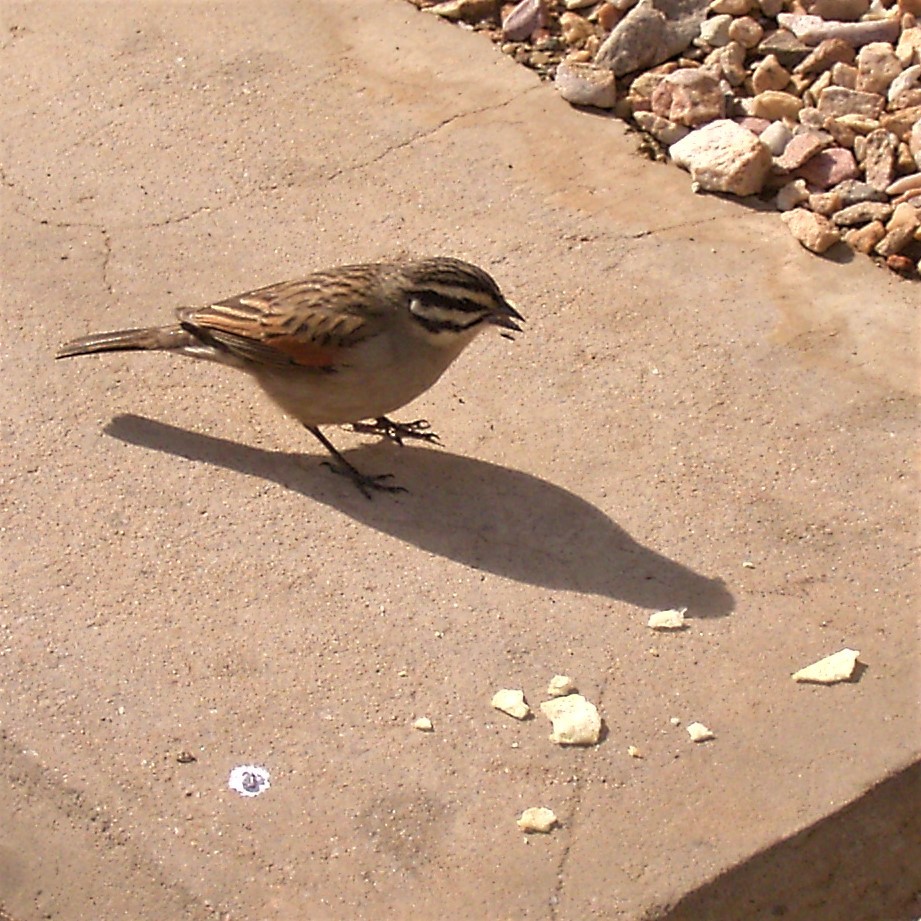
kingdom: Animalia
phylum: Chordata
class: Aves
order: Passeriformes
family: Emberizidae
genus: Emberiza
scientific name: Emberiza capensis
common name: Cape bunting
